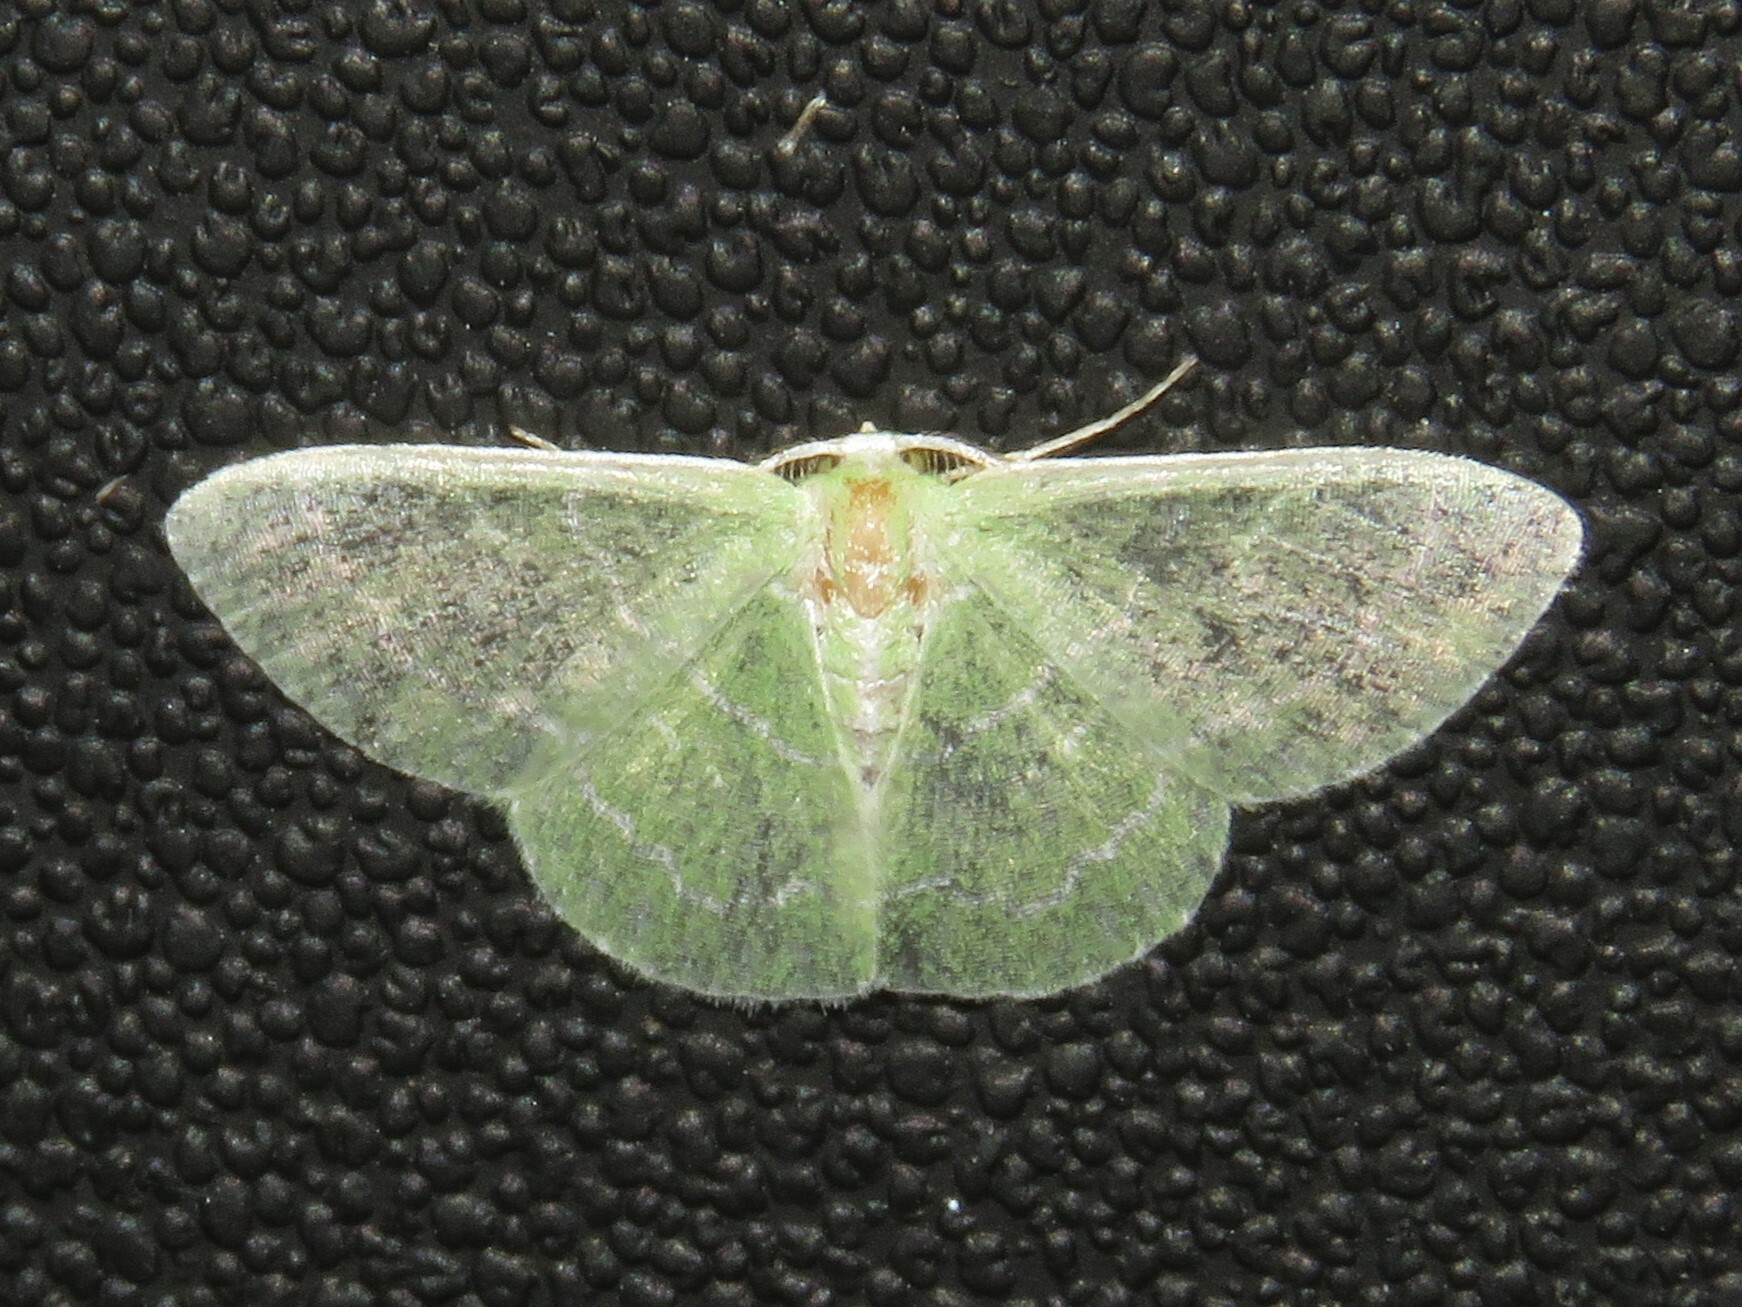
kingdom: Animalia
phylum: Arthropoda
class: Insecta
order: Lepidoptera
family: Geometridae
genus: Synchlora
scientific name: Synchlora aerata
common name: Wavy-lined emerald
